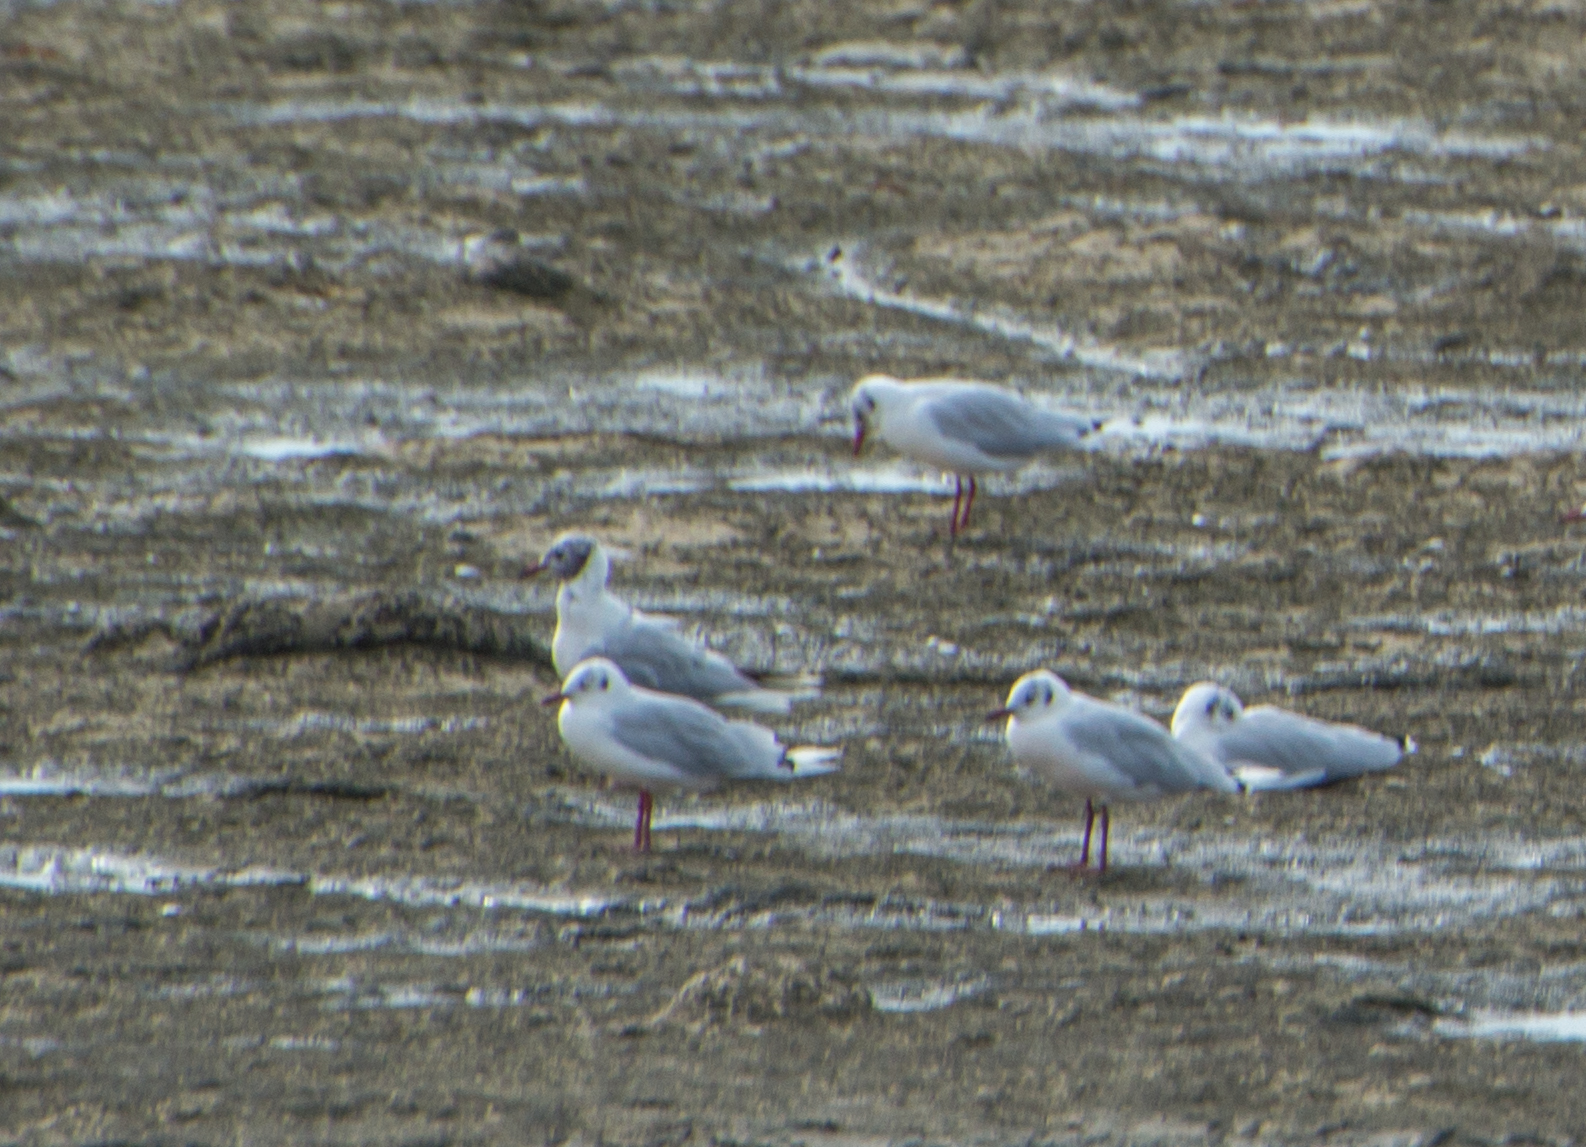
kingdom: Animalia
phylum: Chordata
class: Aves
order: Charadriiformes
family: Laridae
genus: Chroicocephalus
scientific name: Chroicocephalus maculipennis
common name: Brown-hooded gull
